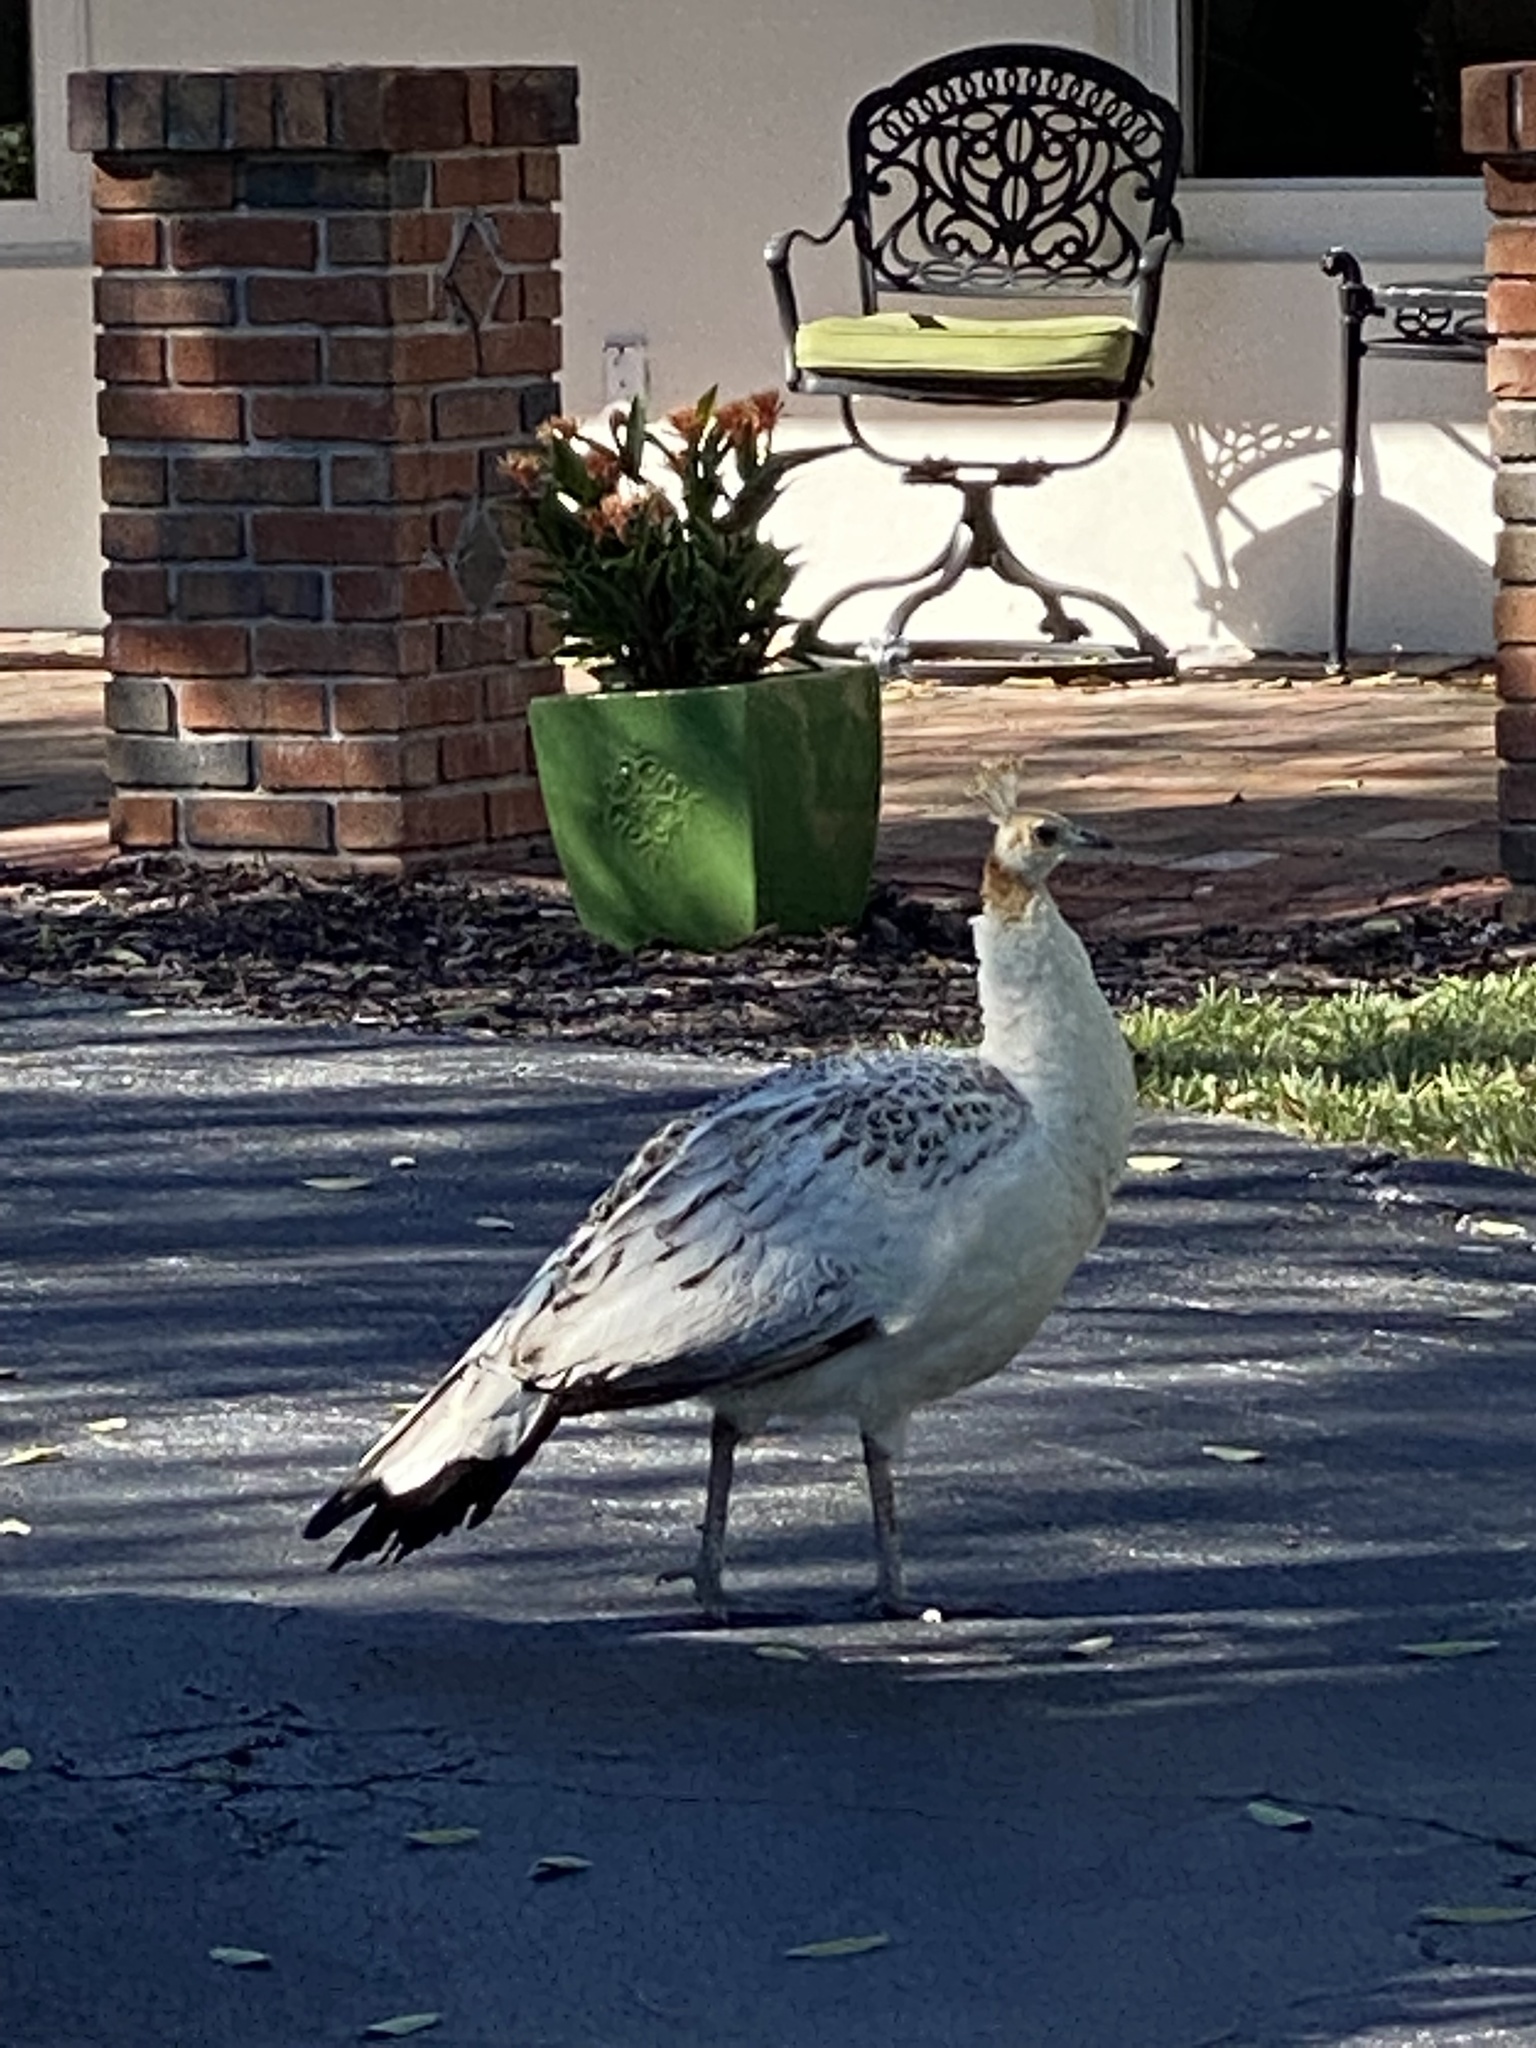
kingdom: Animalia
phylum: Chordata
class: Aves
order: Galliformes
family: Phasianidae
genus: Pavo
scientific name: Pavo cristatus
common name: Indian peafowl
